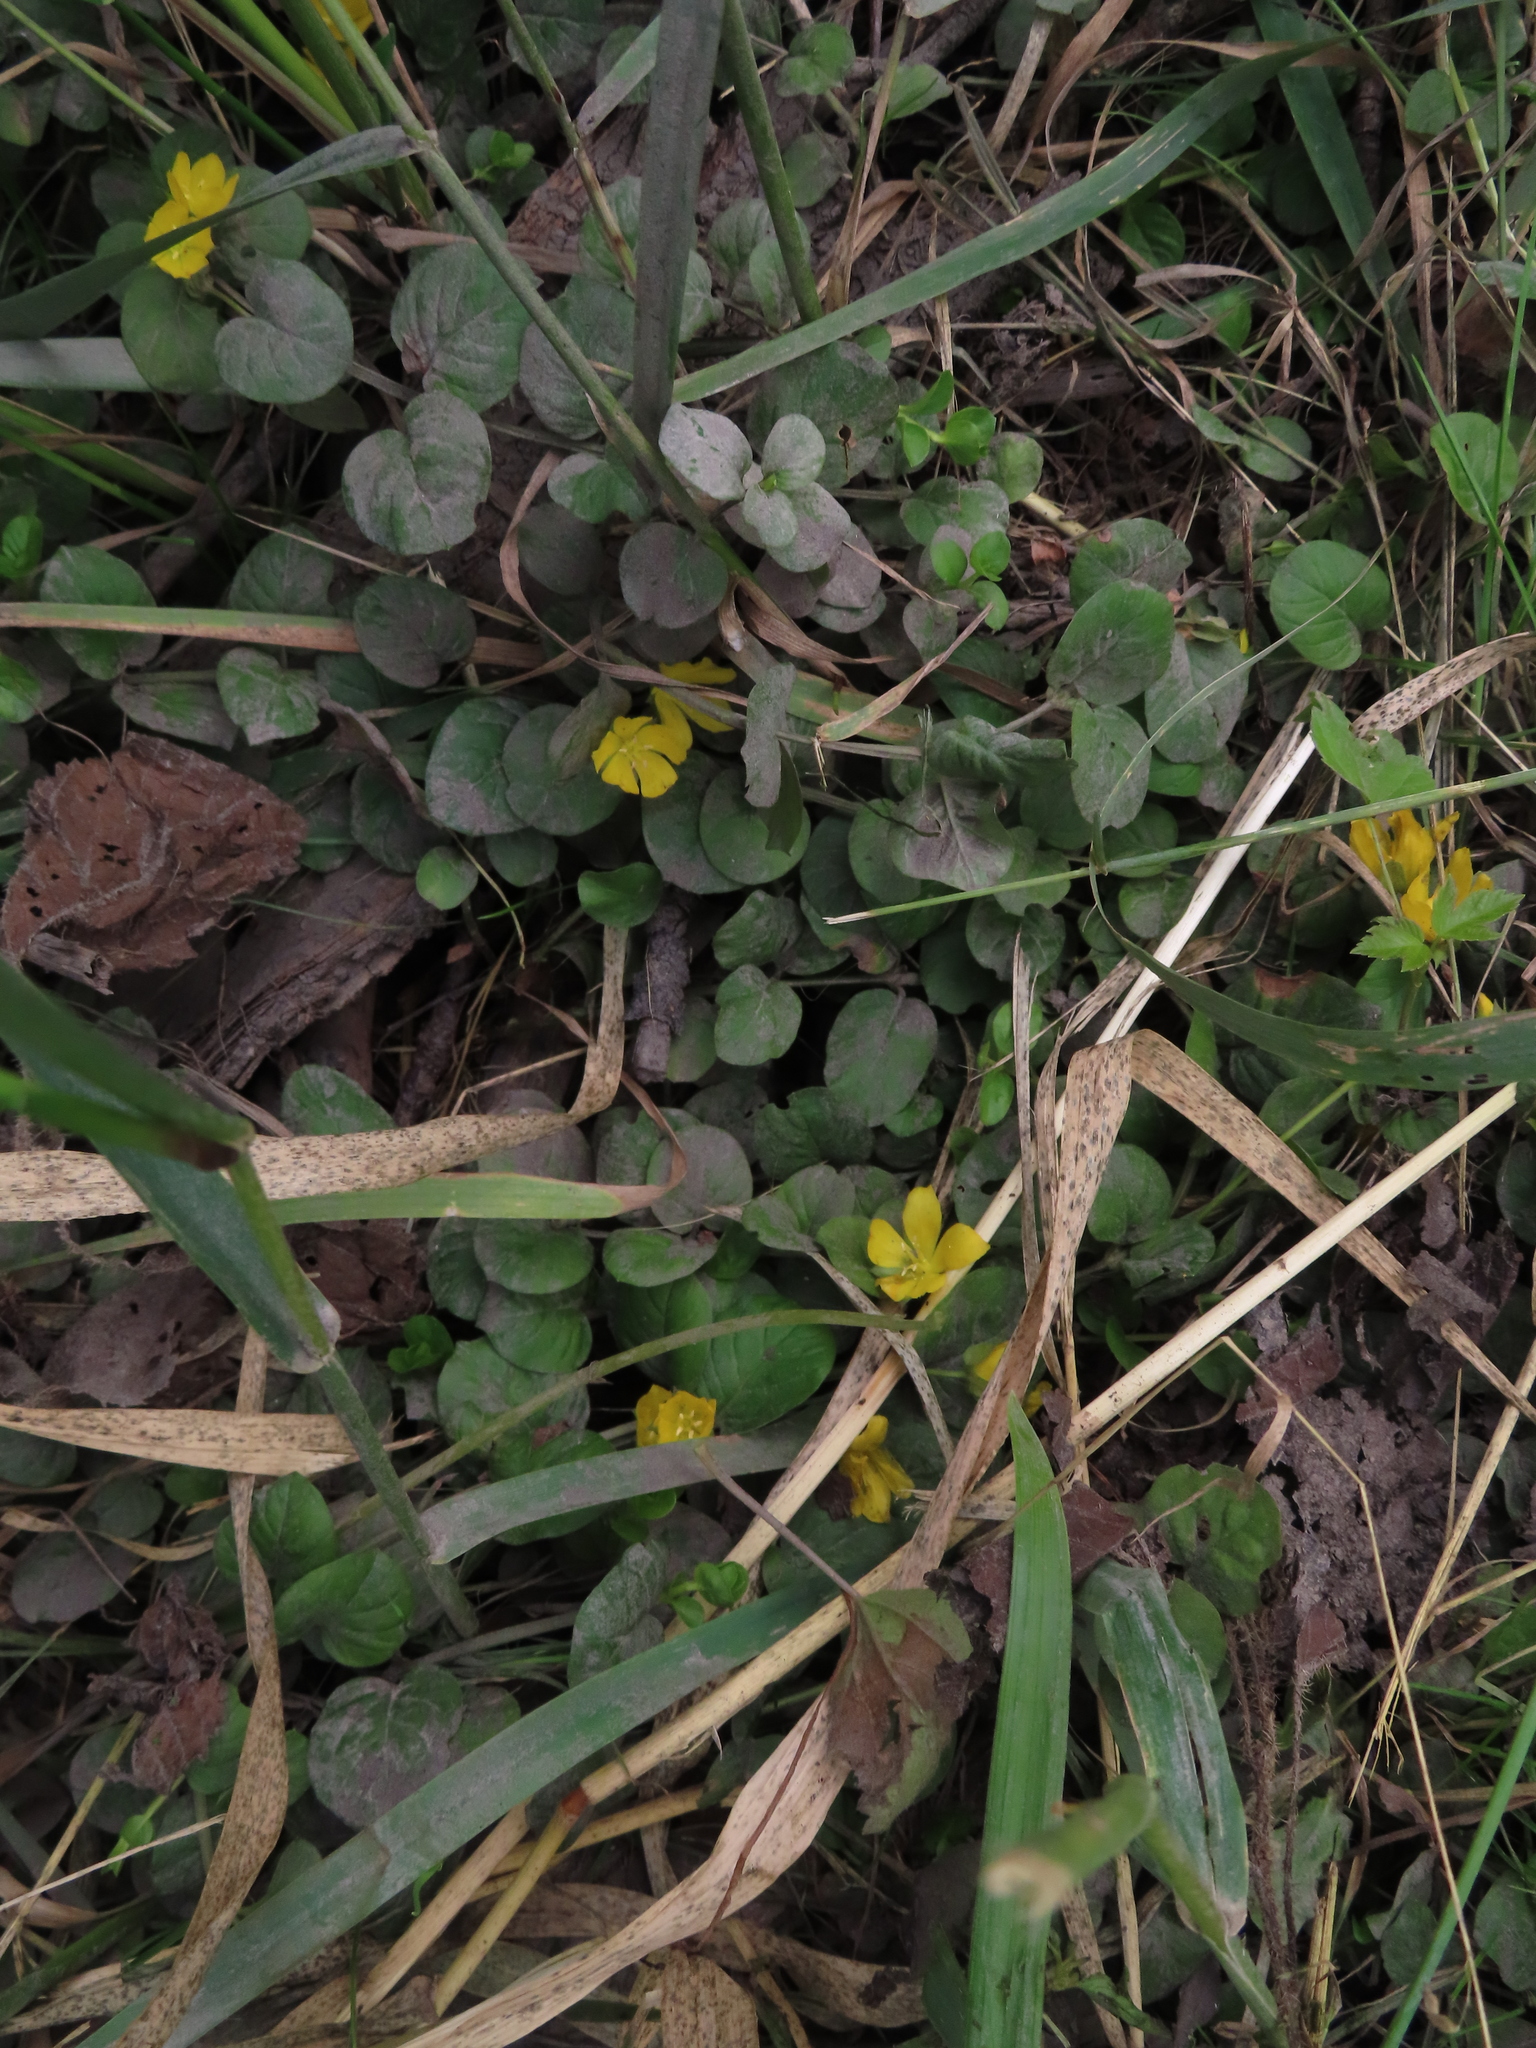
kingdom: Plantae
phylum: Tracheophyta
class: Magnoliopsida
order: Ericales
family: Primulaceae
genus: Lysimachia
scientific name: Lysimachia nummularia
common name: Moneywort
